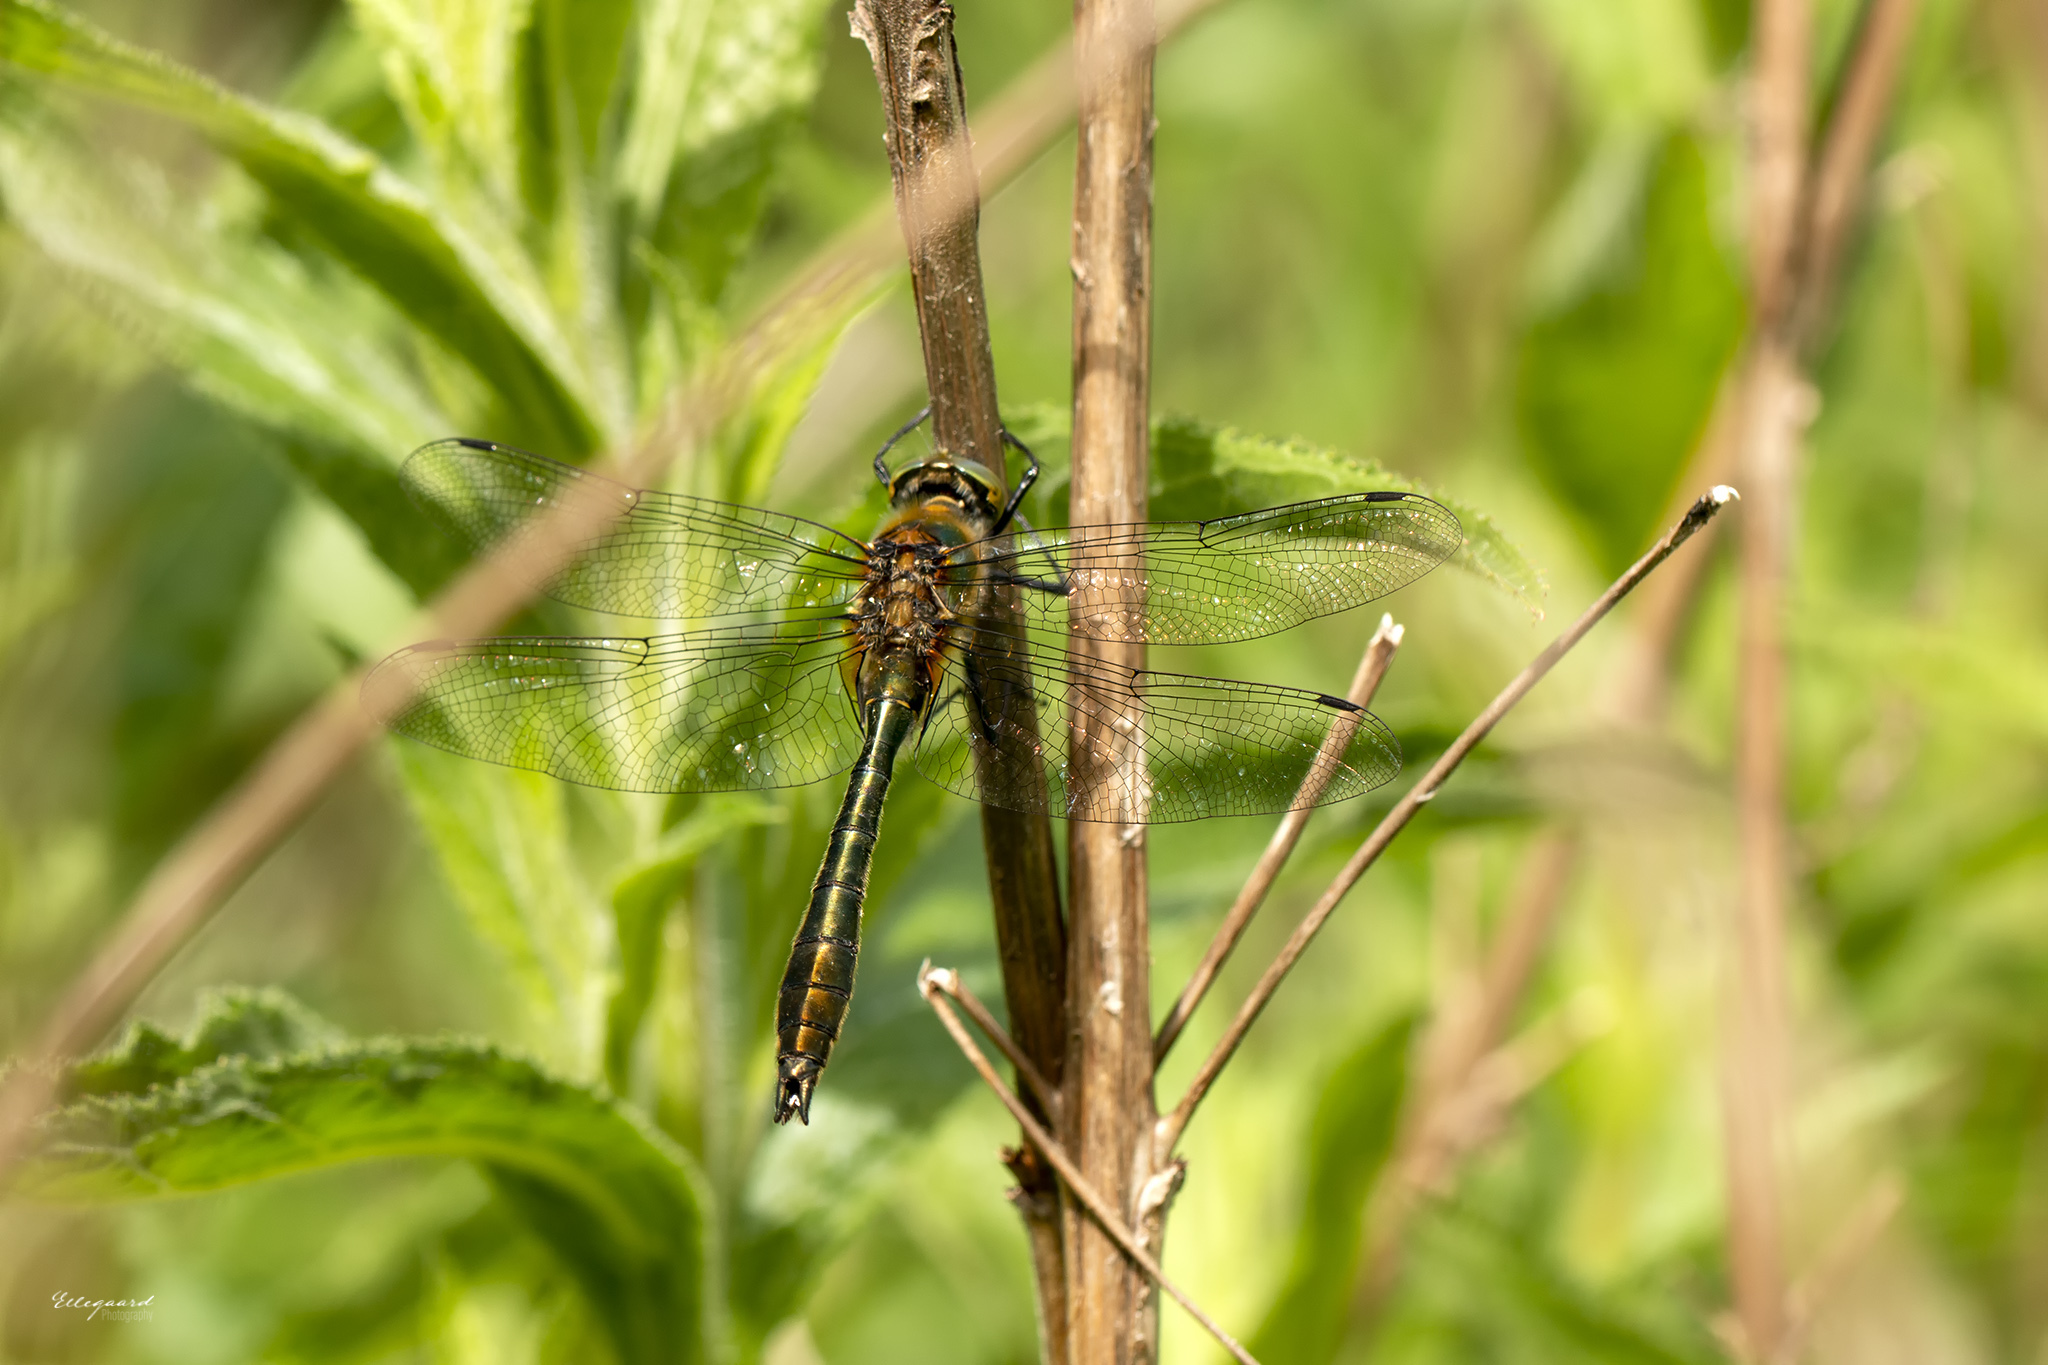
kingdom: Animalia
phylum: Arthropoda
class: Insecta
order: Odonata
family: Corduliidae
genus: Cordulia
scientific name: Cordulia aenea
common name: Downy emerald
